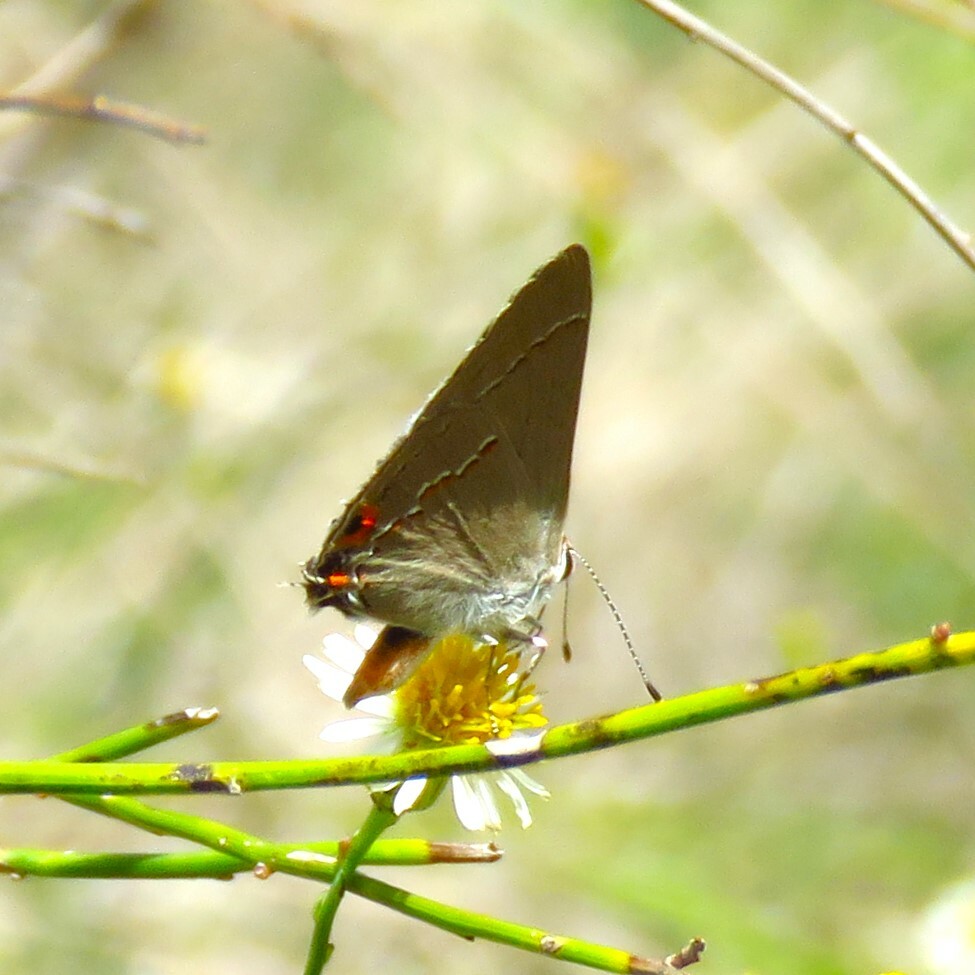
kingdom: Animalia
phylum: Arthropoda
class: Insecta
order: Lepidoptera
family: Lycaenidae
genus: Strymon
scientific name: Strymon melinus
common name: Gray hairstreak
